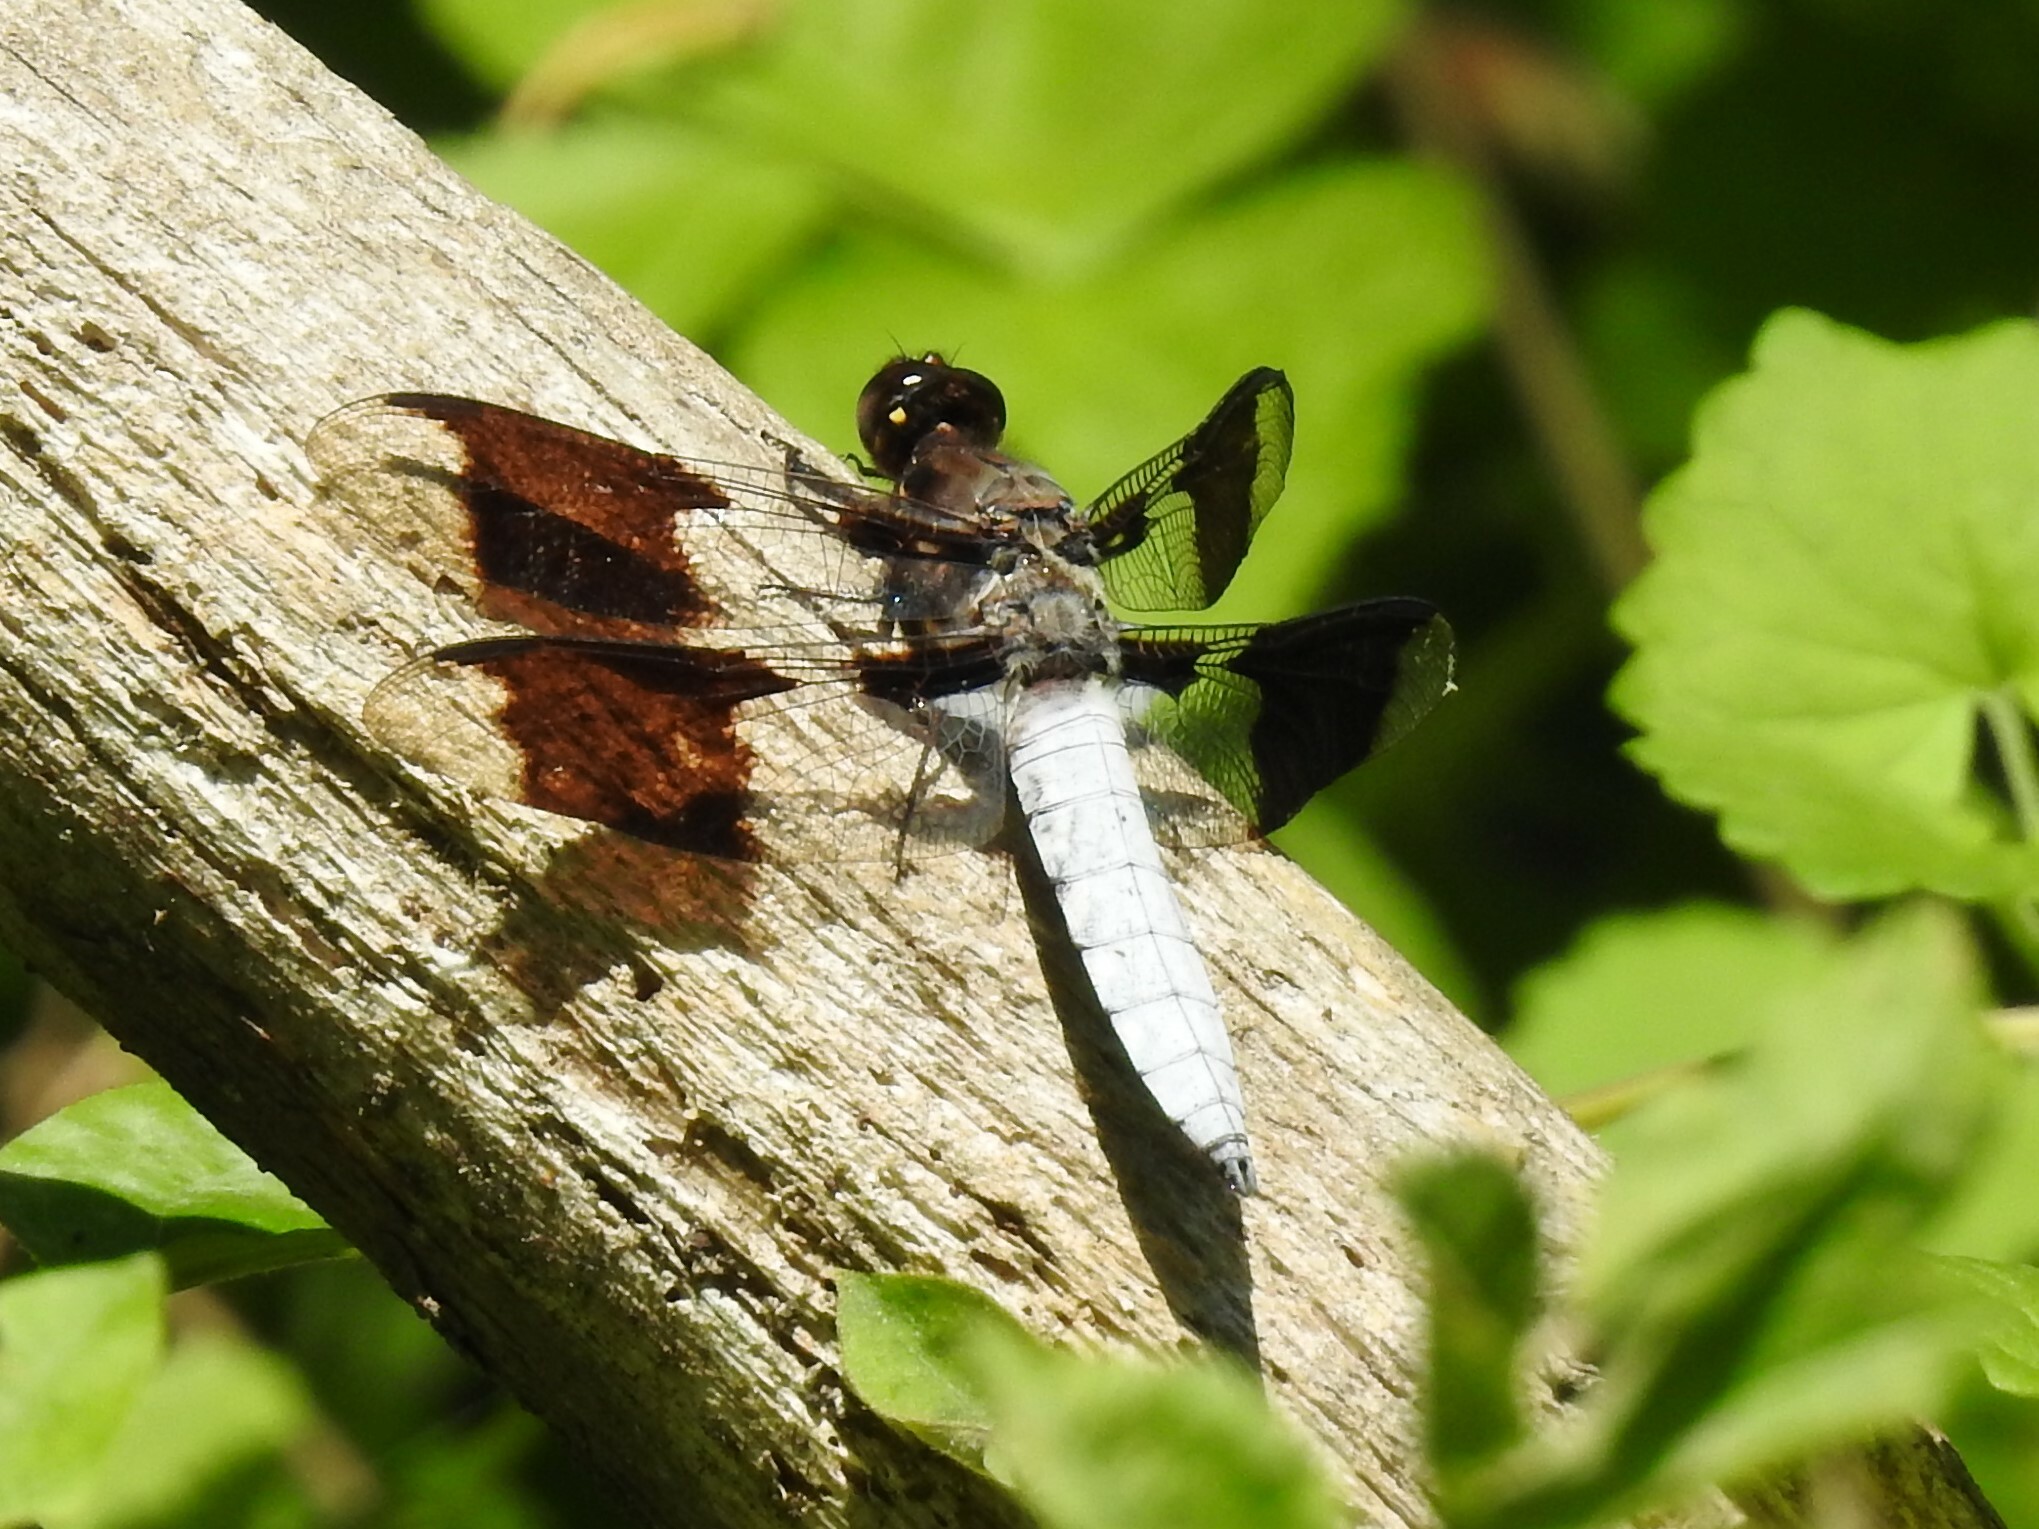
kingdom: Animalia
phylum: Arthropoda
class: Insecta
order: Odonata
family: Libellulidae
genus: Plathemis
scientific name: Plathemis lydia
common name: Common whitetail
